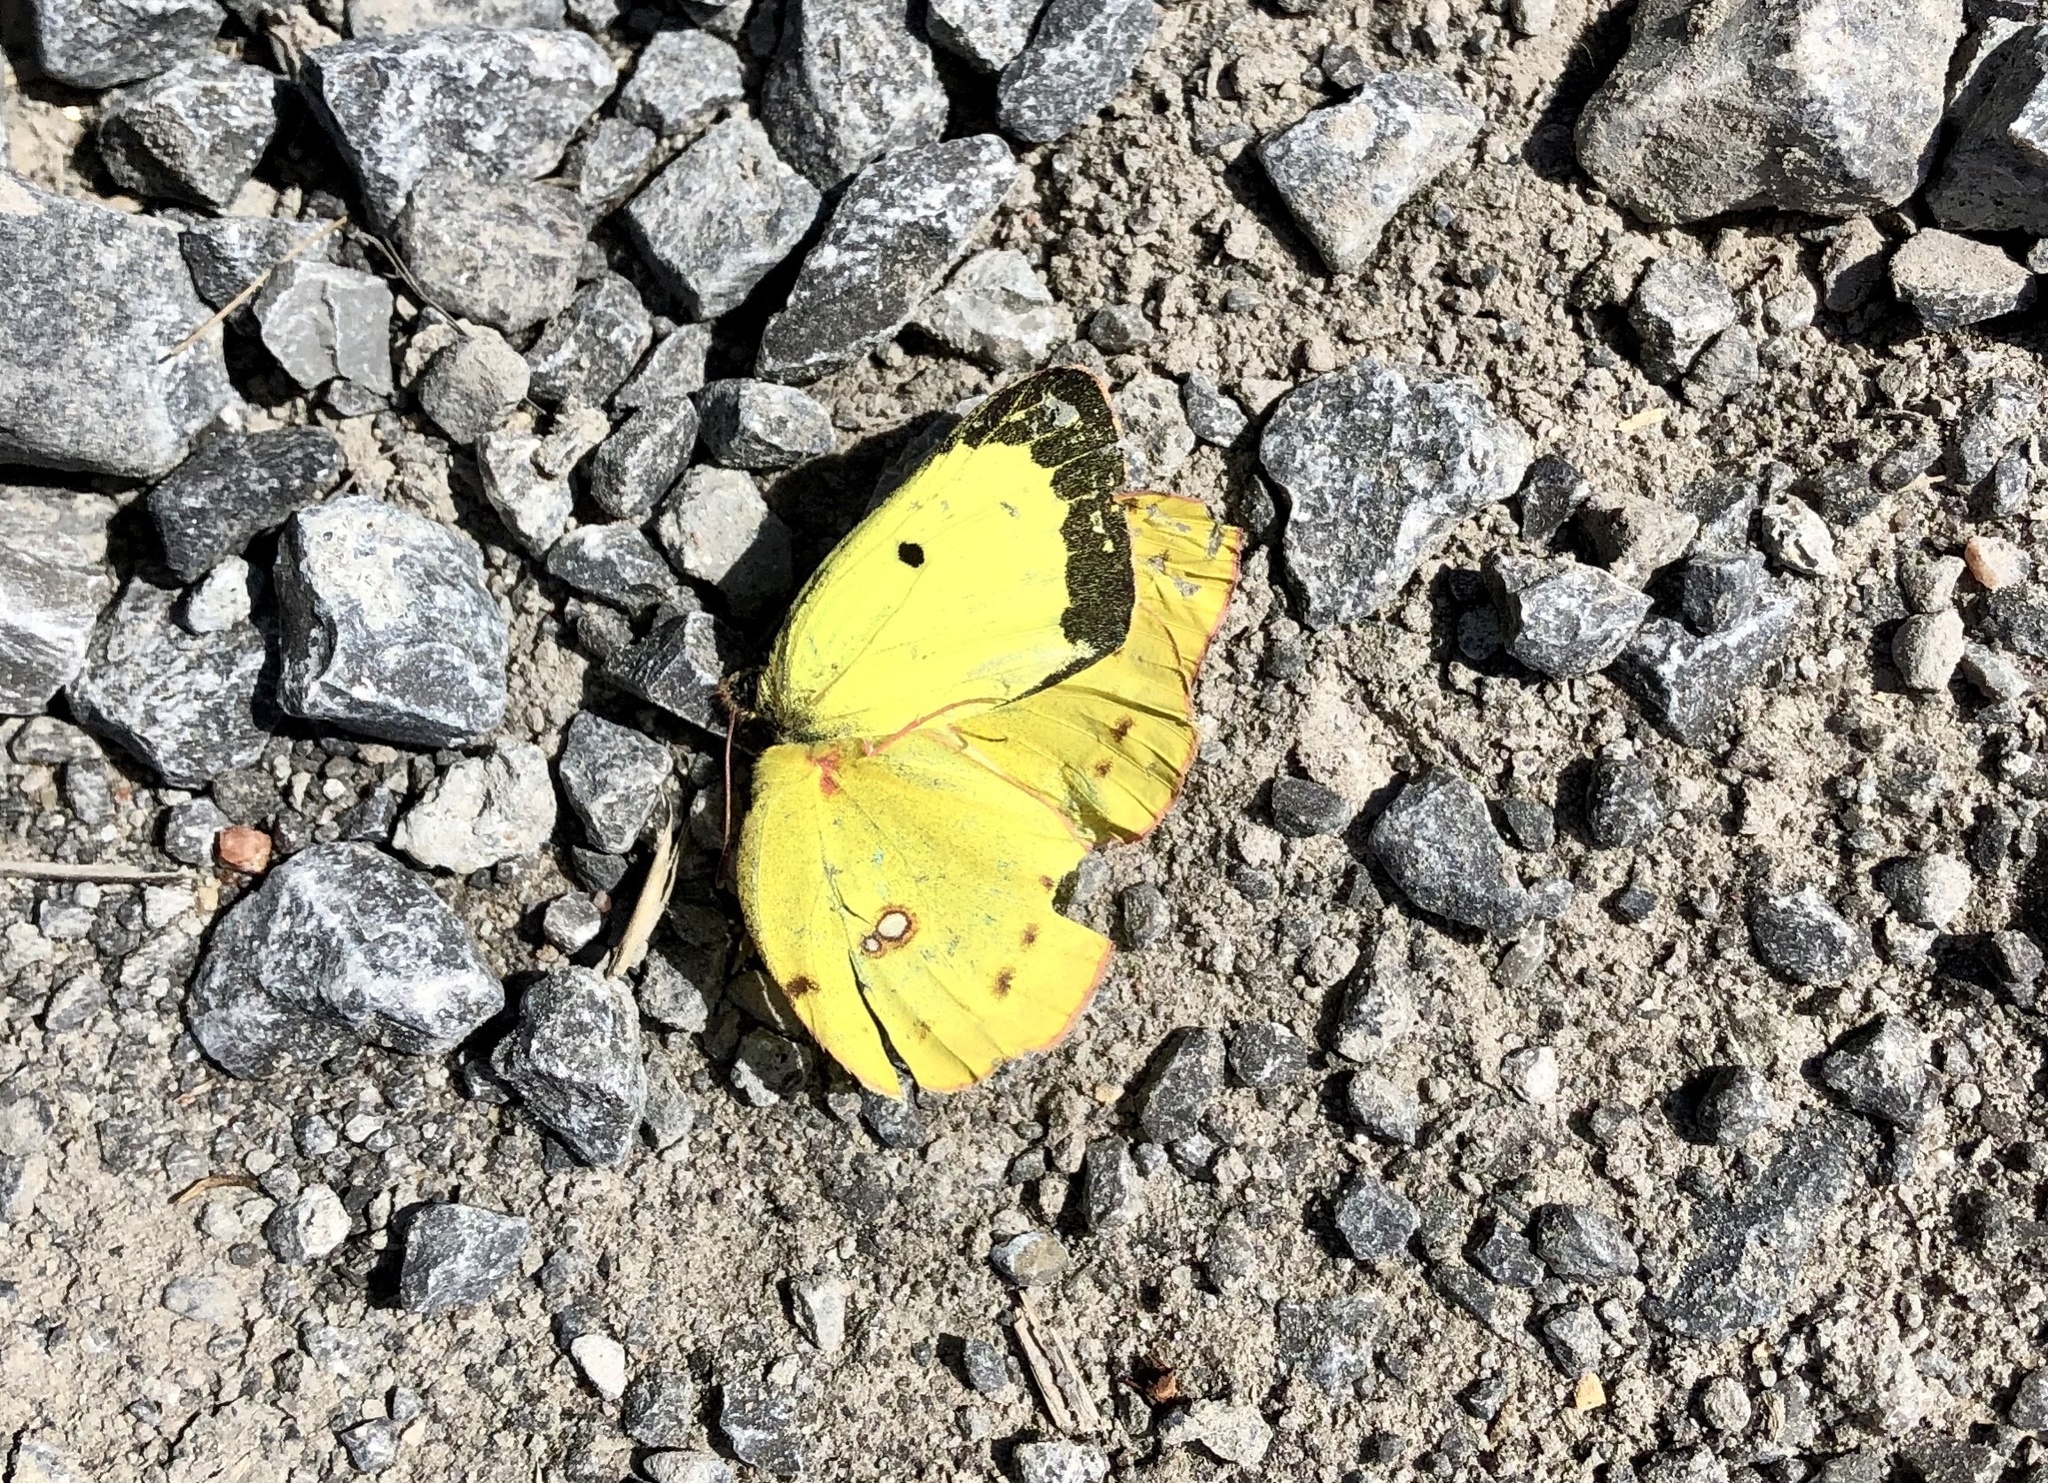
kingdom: Animalia
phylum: Arthropoda
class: Insecta
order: Lepidoptera
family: Pieridae
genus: Colias
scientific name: Colias philodice
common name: Clouded sulphur
